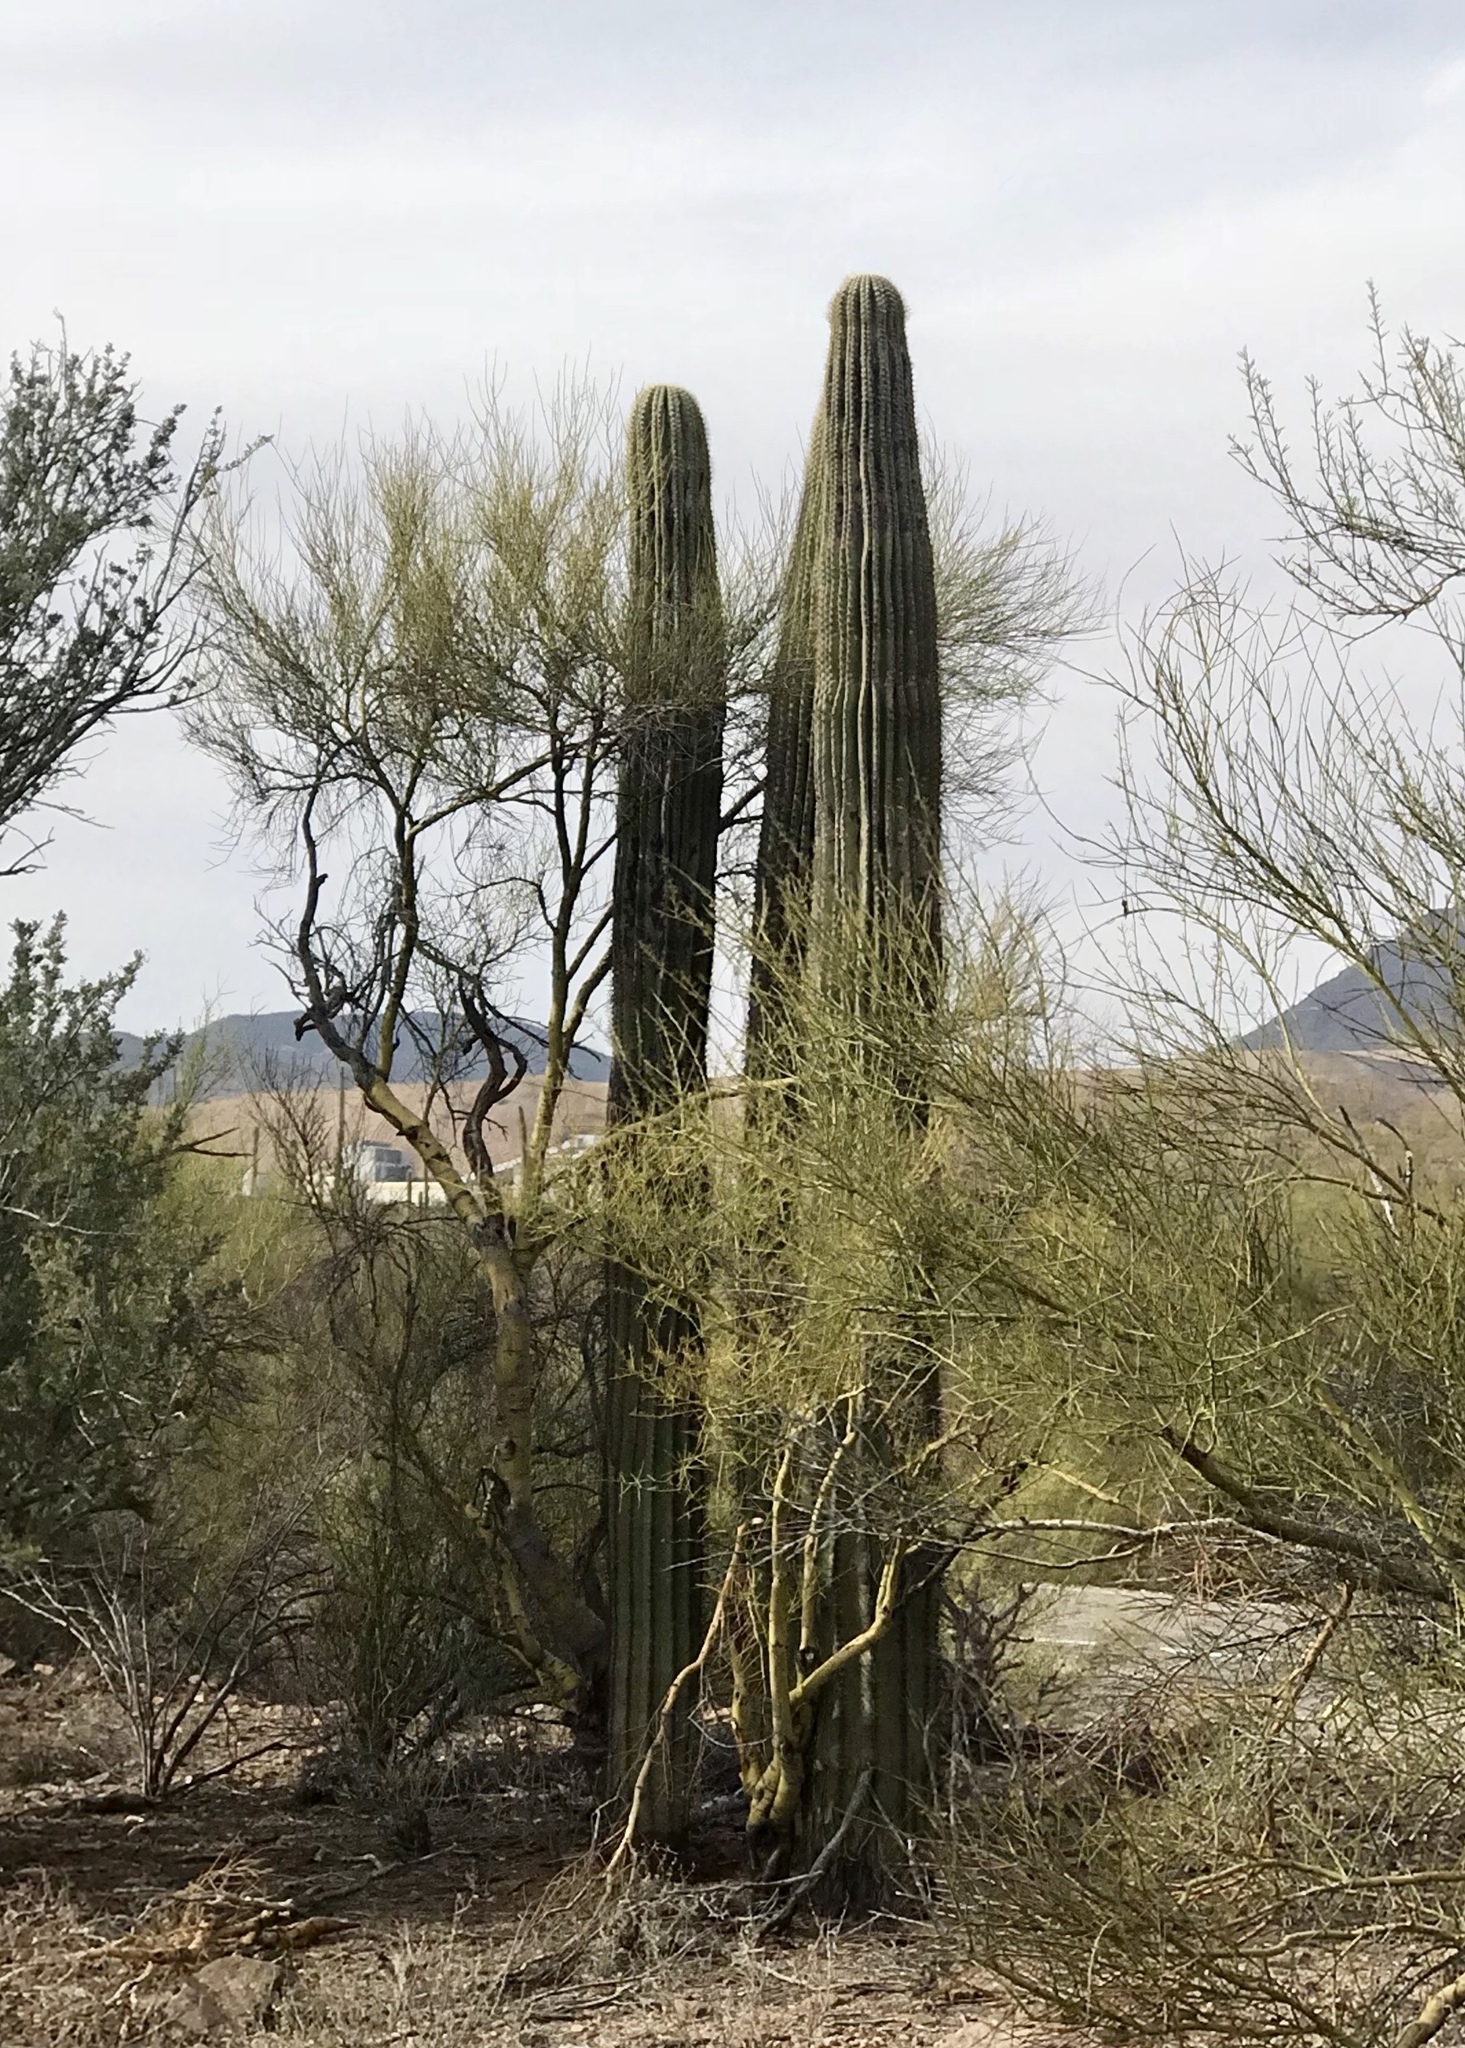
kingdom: Plantae
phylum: Tracheophyta
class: Magnoliopsida
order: Caryophyllales
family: Cactaceae
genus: Carnegiea
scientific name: Carnegiea gigantea
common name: Saguaro
